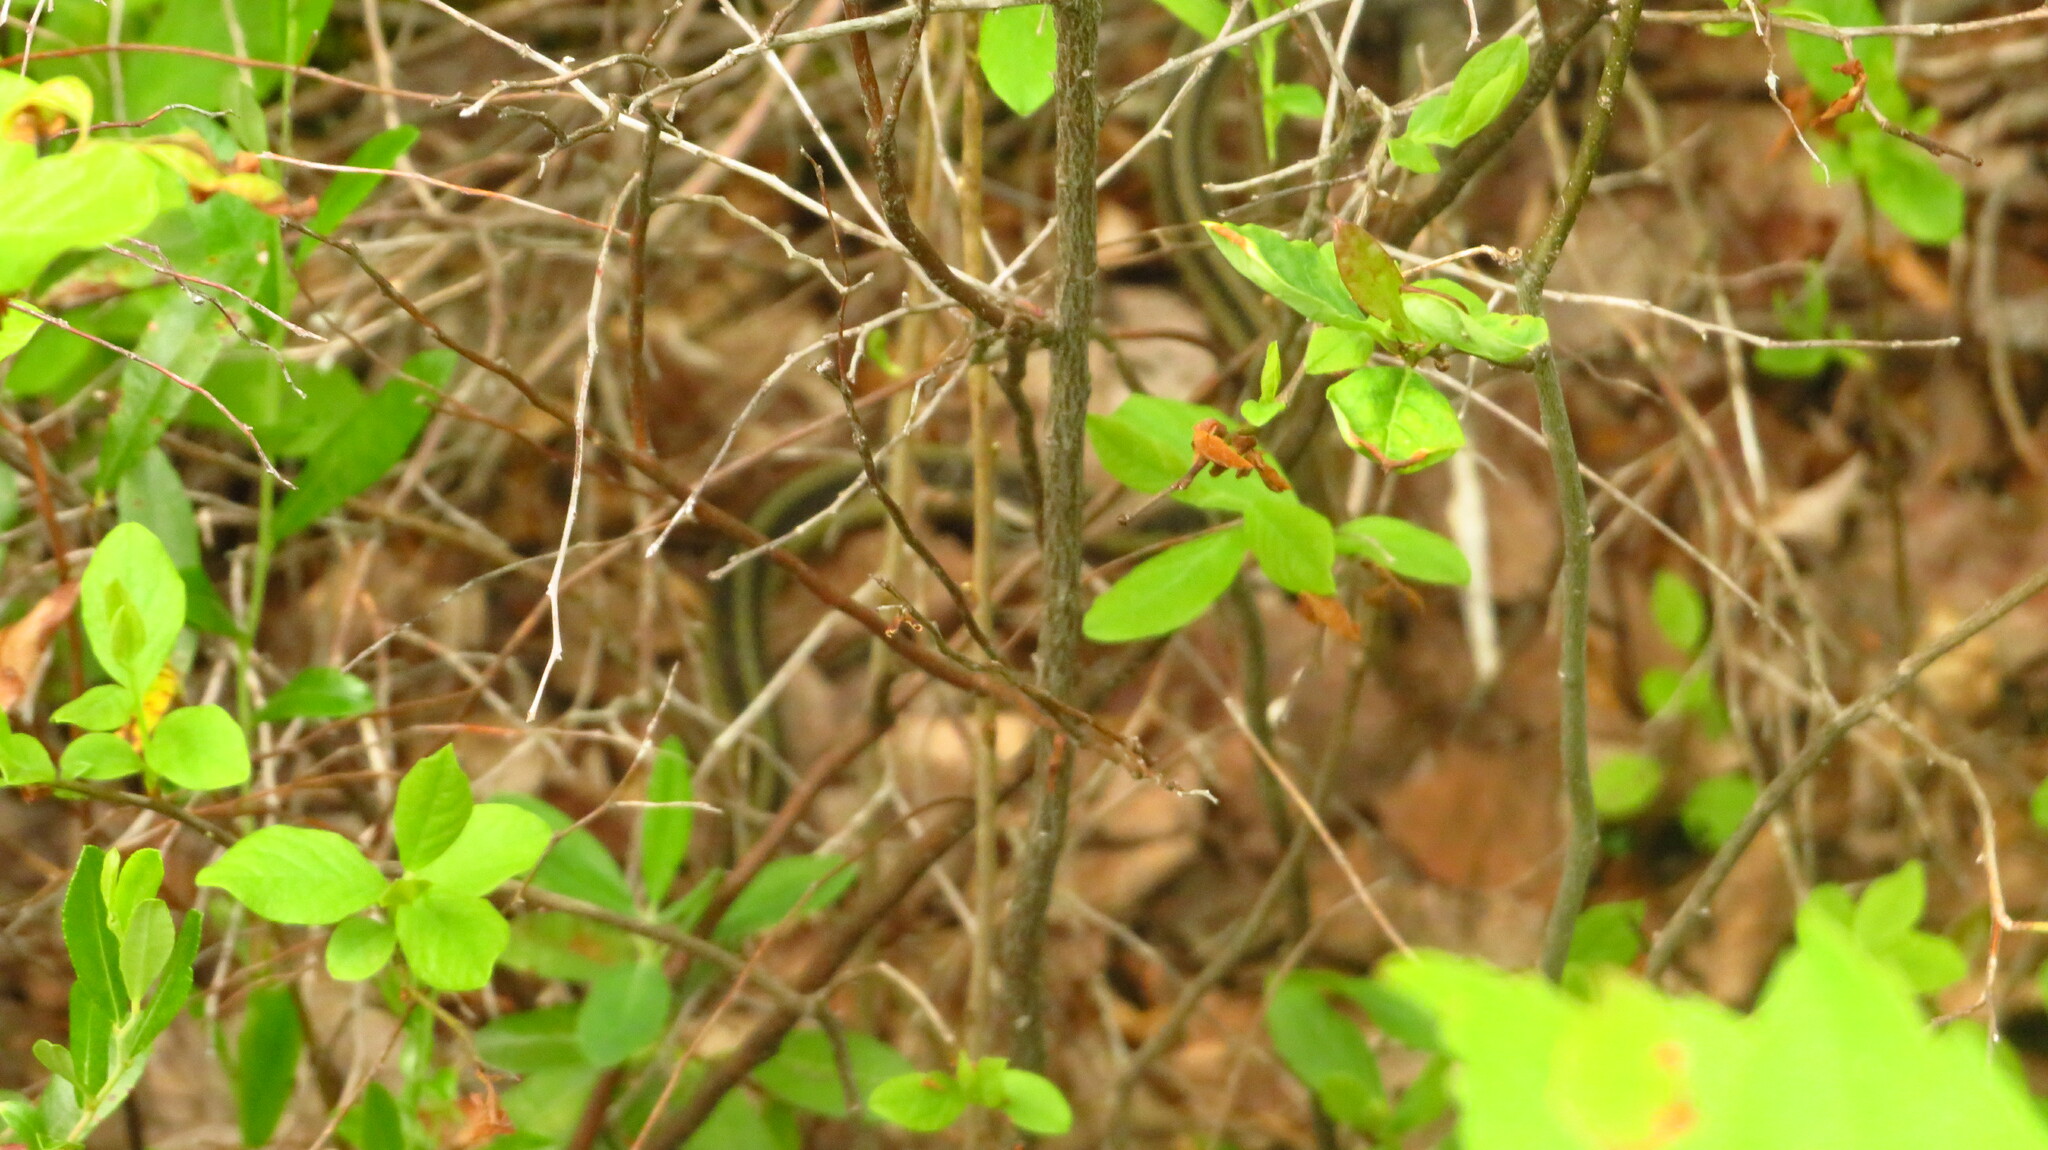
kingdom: Animalia
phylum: Chordata
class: Squamata
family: Colubridae
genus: Thamnophis
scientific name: Thamnophis sirtalis
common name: Common garter snake
